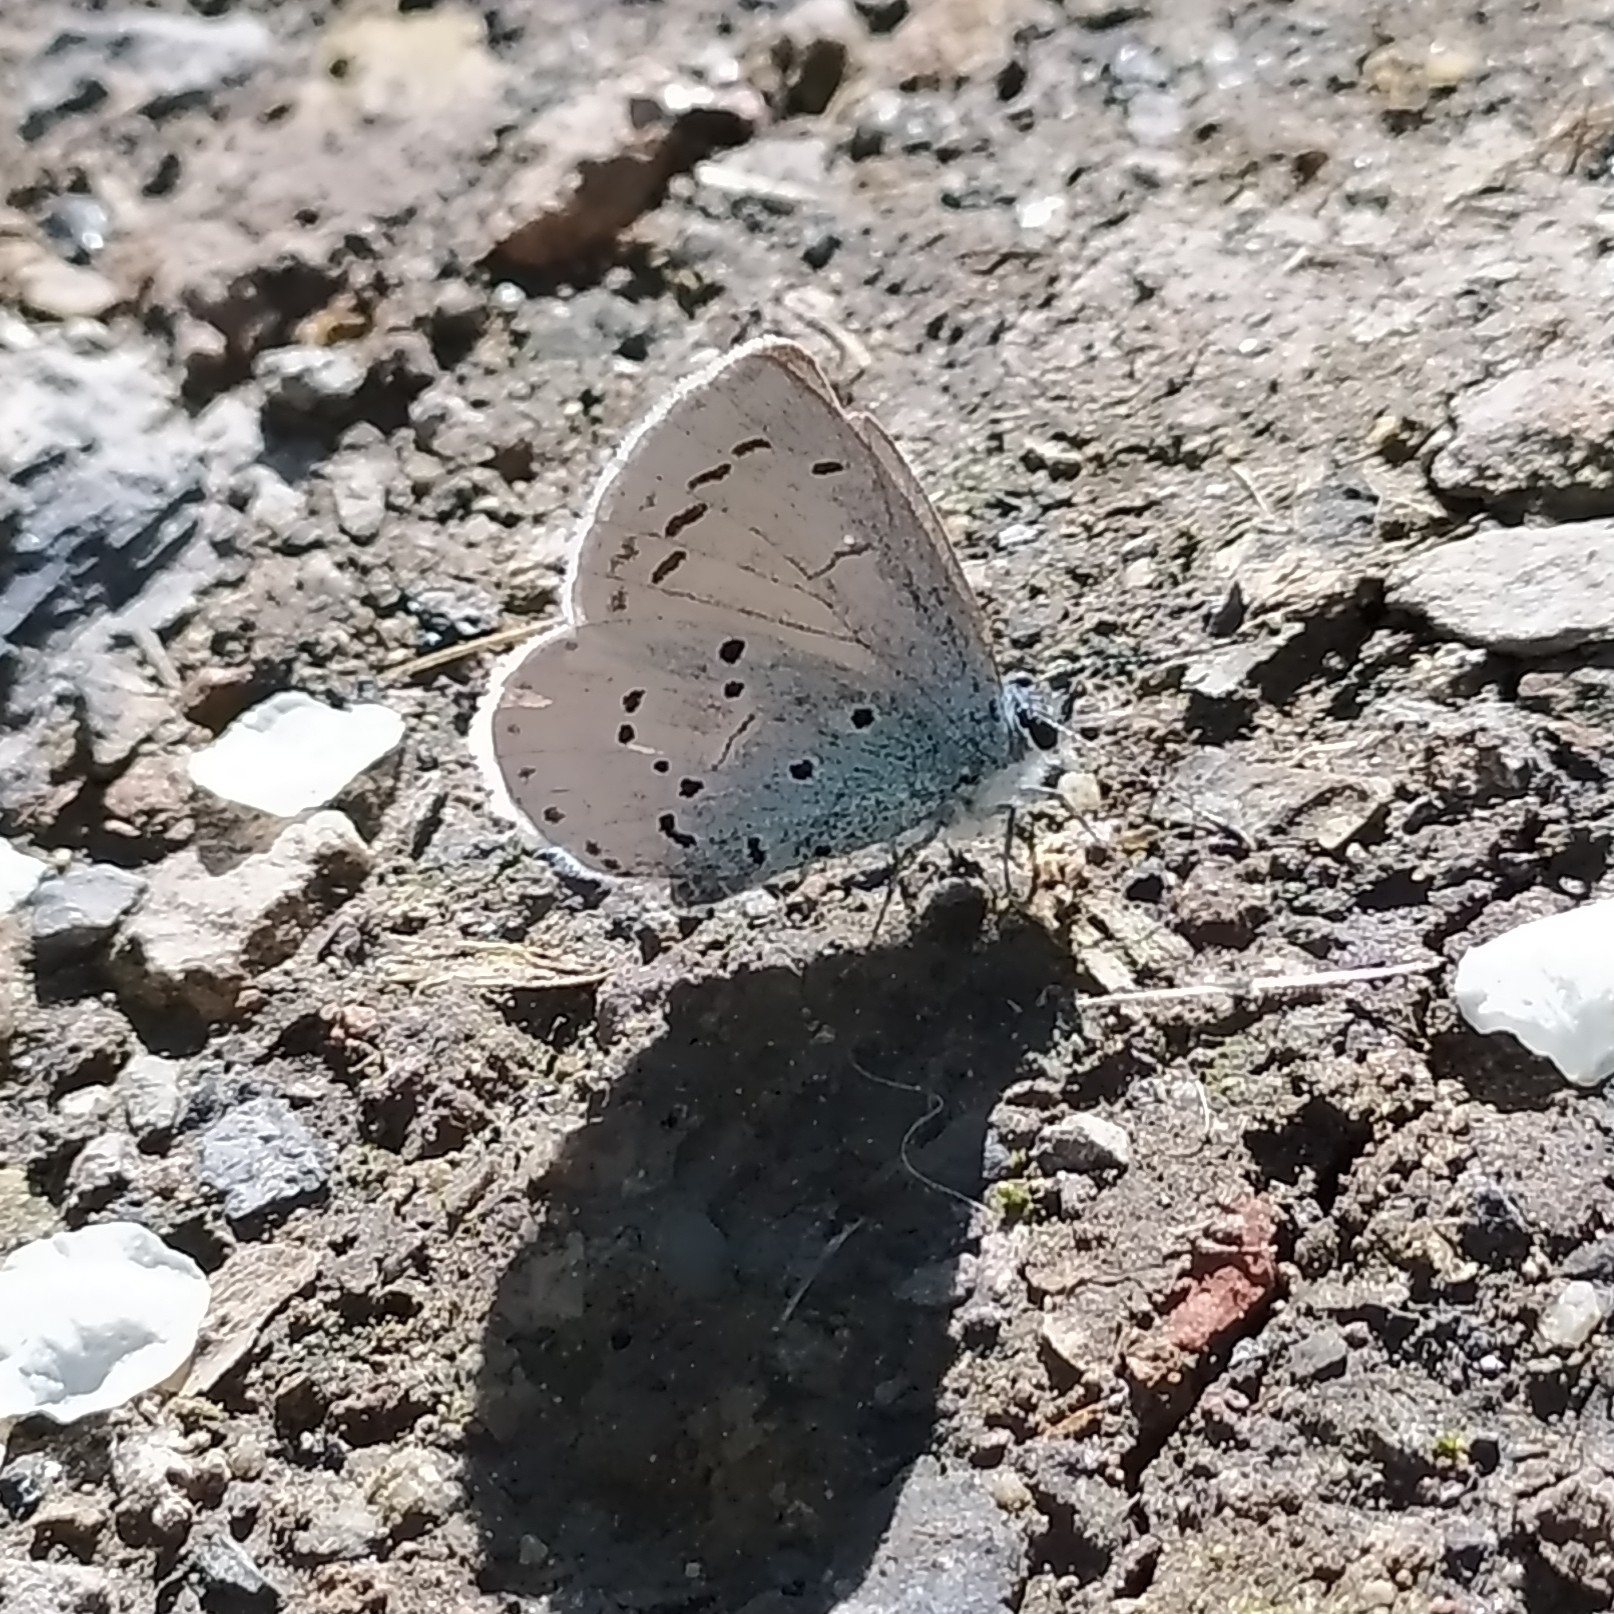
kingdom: Animalia
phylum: Arthropoda
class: Insecta
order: Lepidoptera
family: Lycaenidae
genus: Celastrina
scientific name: Celastrina argiolus
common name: Holly blue
